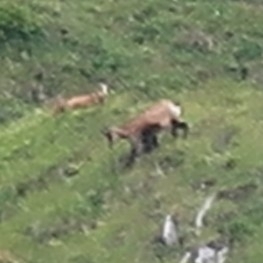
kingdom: Animalia
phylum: Chordata
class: Mammalia
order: Artiodactyla
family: Bovidae
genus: Rupicapra
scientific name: Rupicapra rupicapra
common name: Chamois
